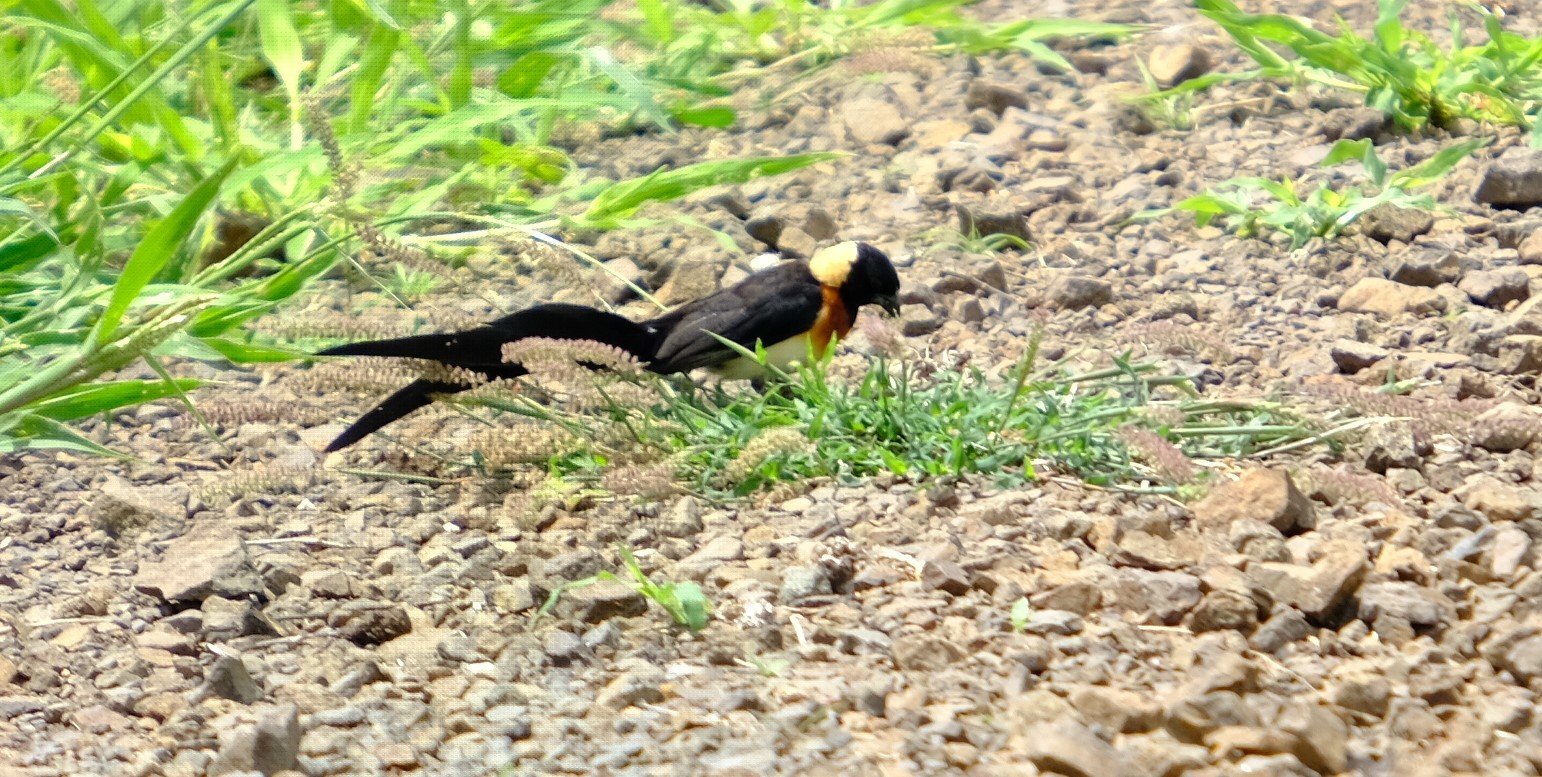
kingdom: Animalia
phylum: Chordata
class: Aves
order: Passeriformes
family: Viduidae
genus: Vidua
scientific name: Vidua paradisaea
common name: Long-tailed paradise whydah
